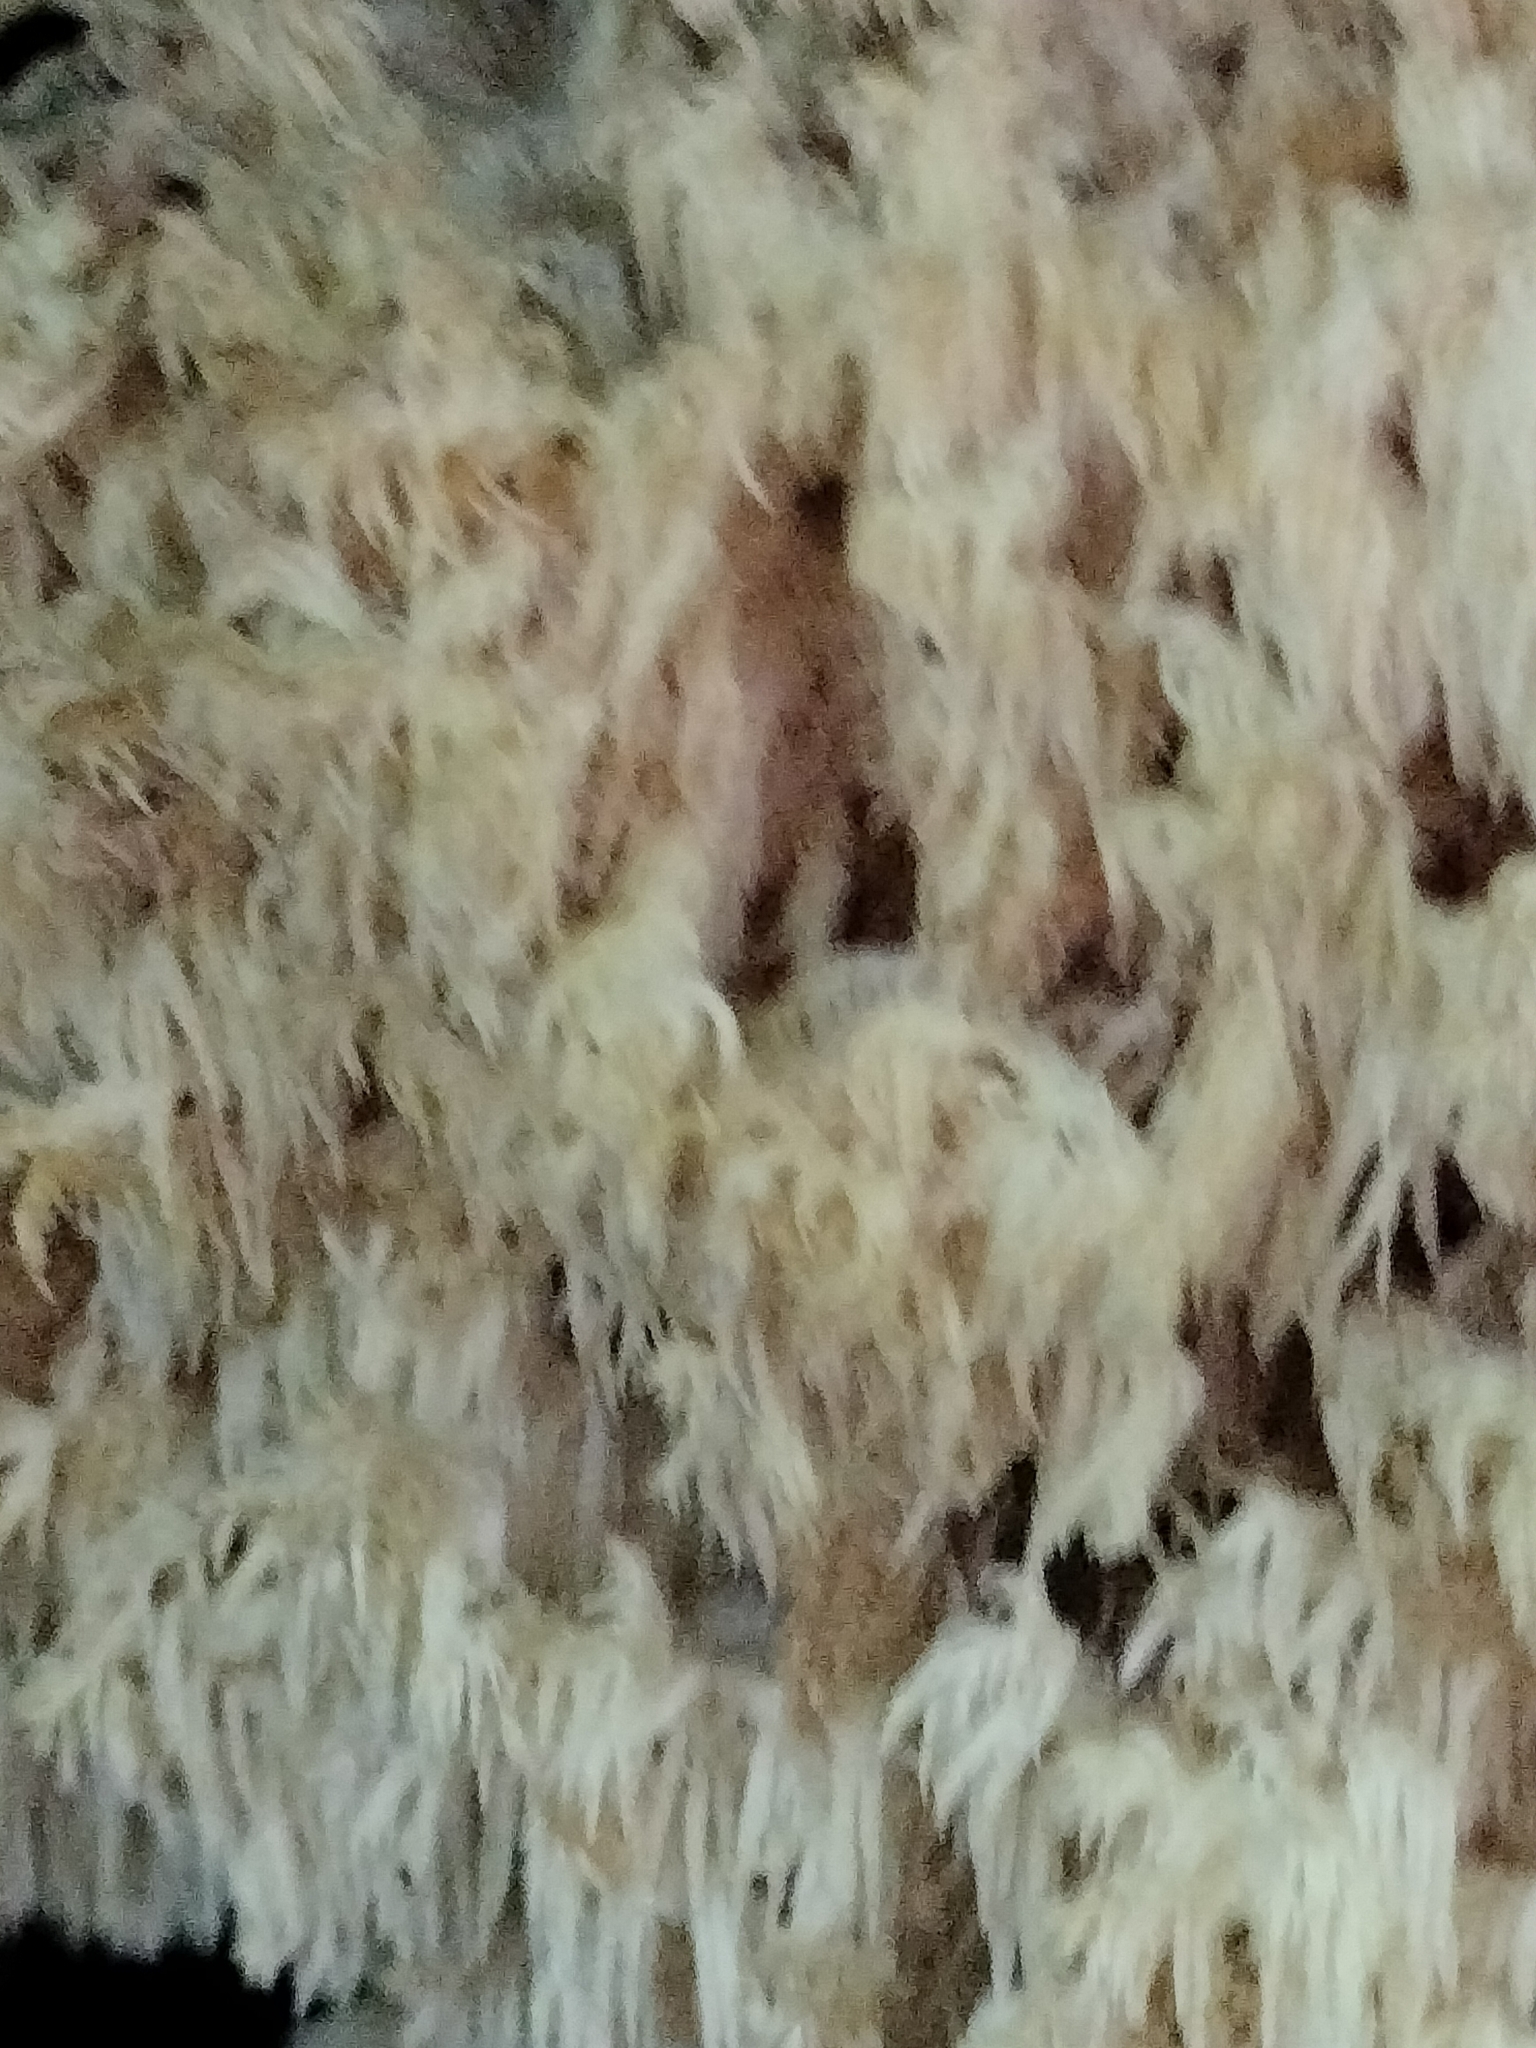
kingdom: Fungi
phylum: Basidiomycota
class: Agaricomycetes
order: Russulales
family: Hericiaceae
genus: Hericium
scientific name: Hericium coralloides
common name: Coral tooth
